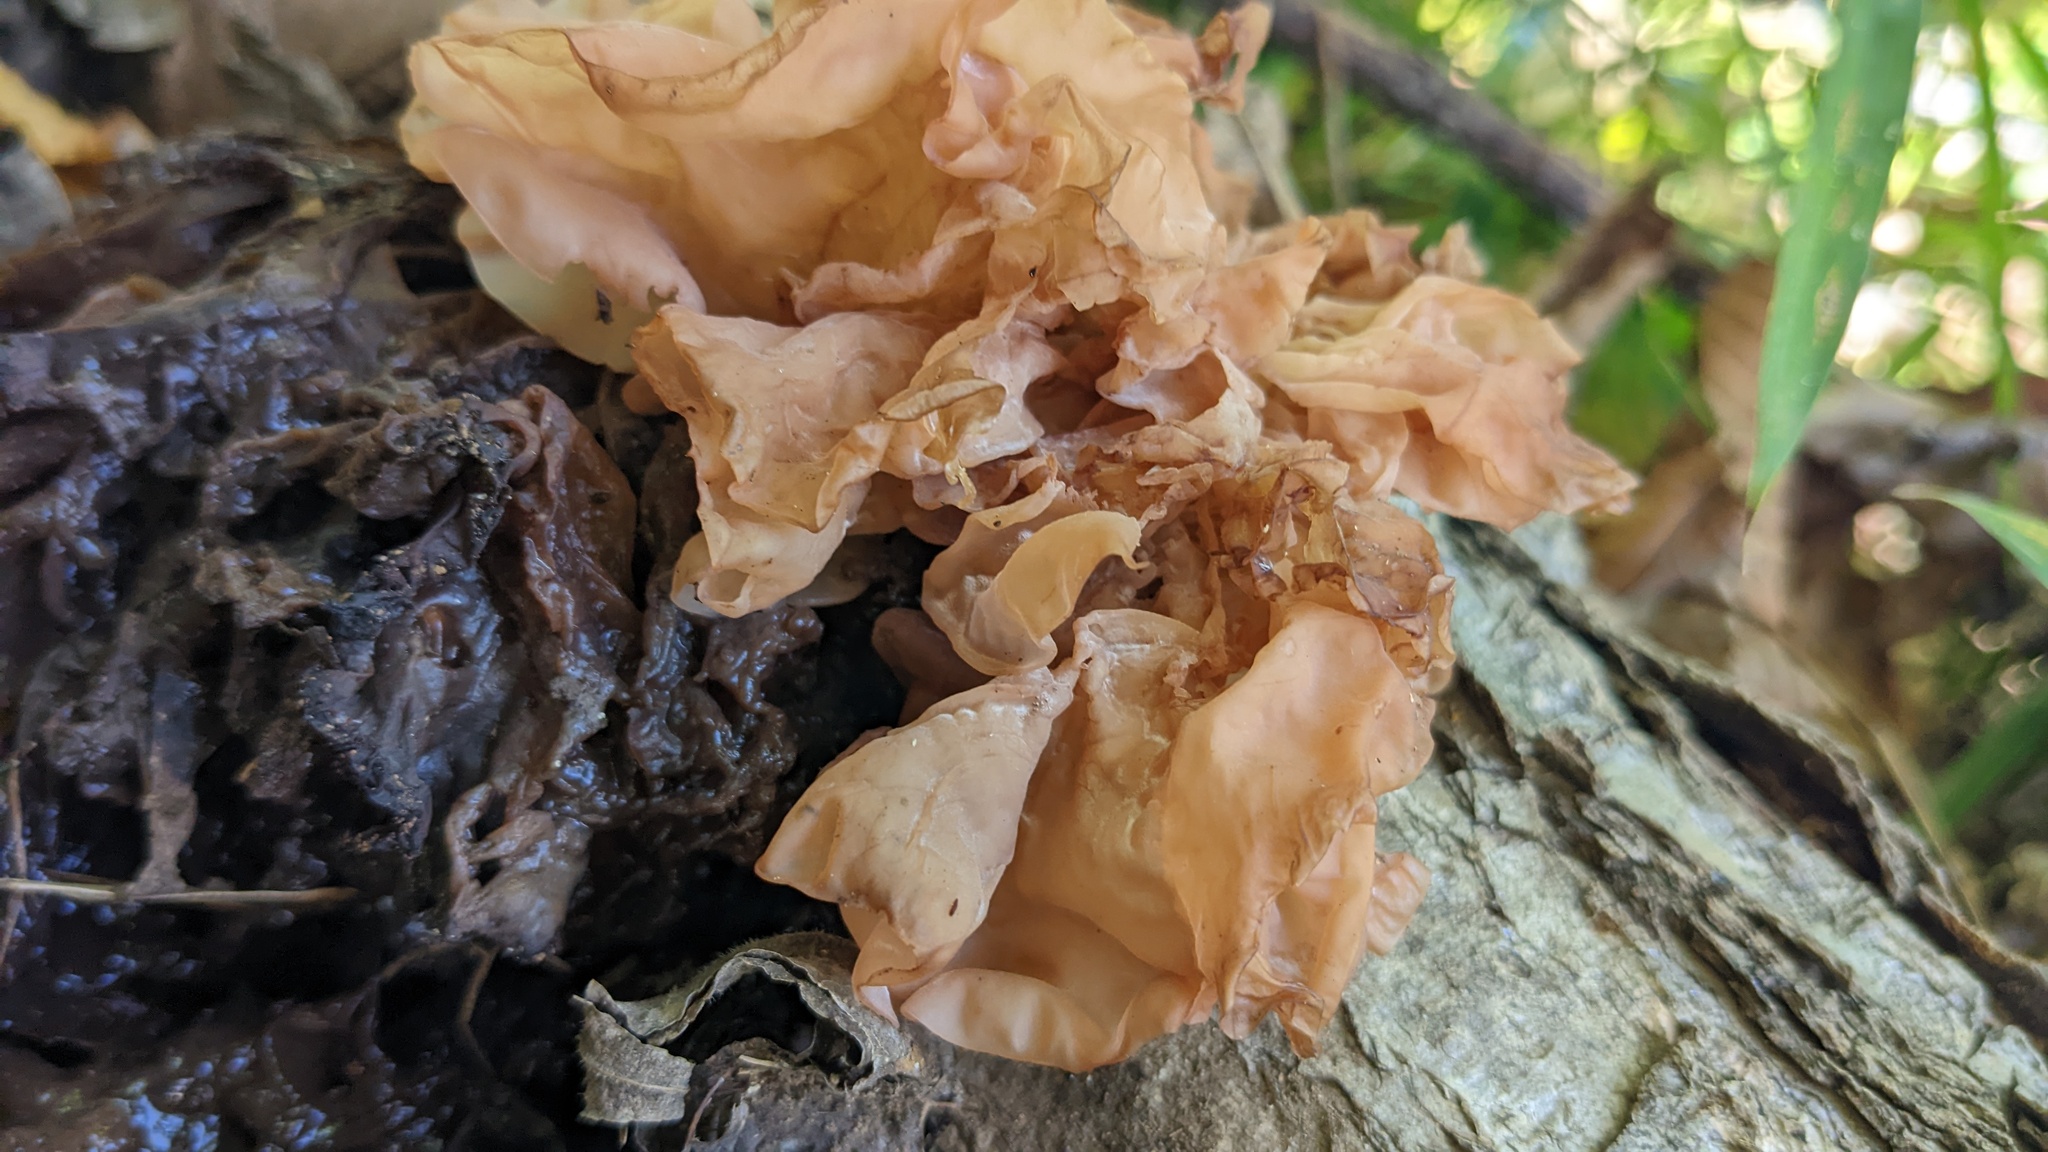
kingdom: Fungi
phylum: Basidiomycota
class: Tremellomycetes
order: Tremellales
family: Tremellaceae
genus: Phaeotremella
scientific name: Phaeotremella foliacea
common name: Leafy brain
